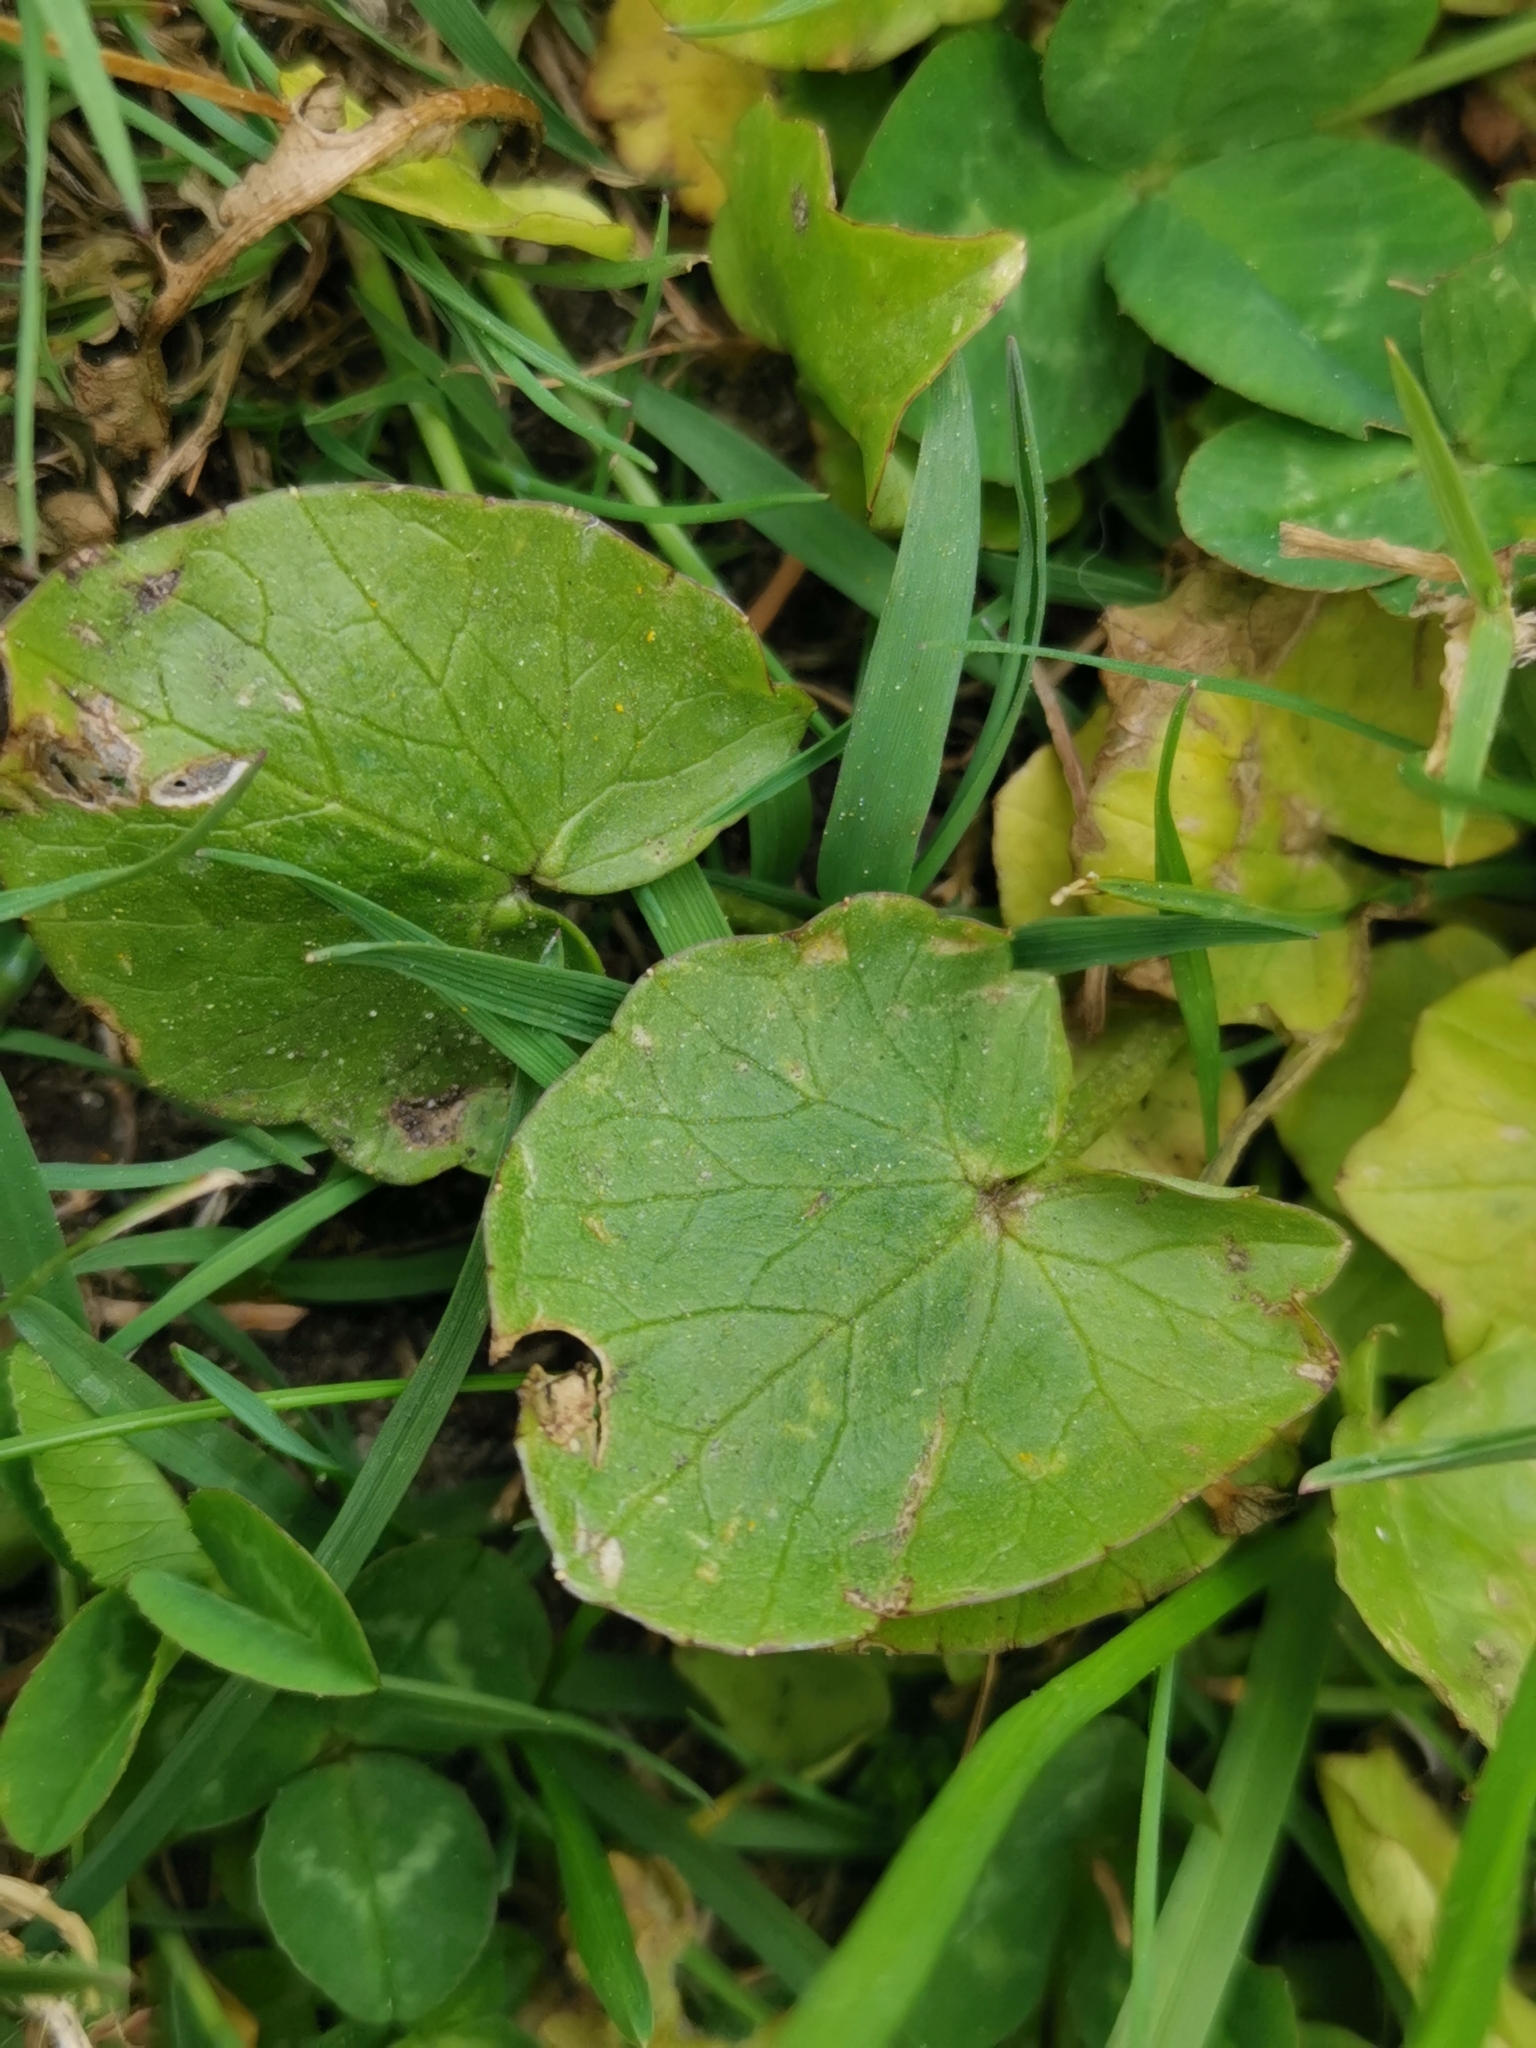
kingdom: Plantae
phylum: Tracheophyta
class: Magnoliopsida
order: Ranunculales
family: Ranunculaceae
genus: Ficaria
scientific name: Ficaria verna
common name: Lesser celandine
